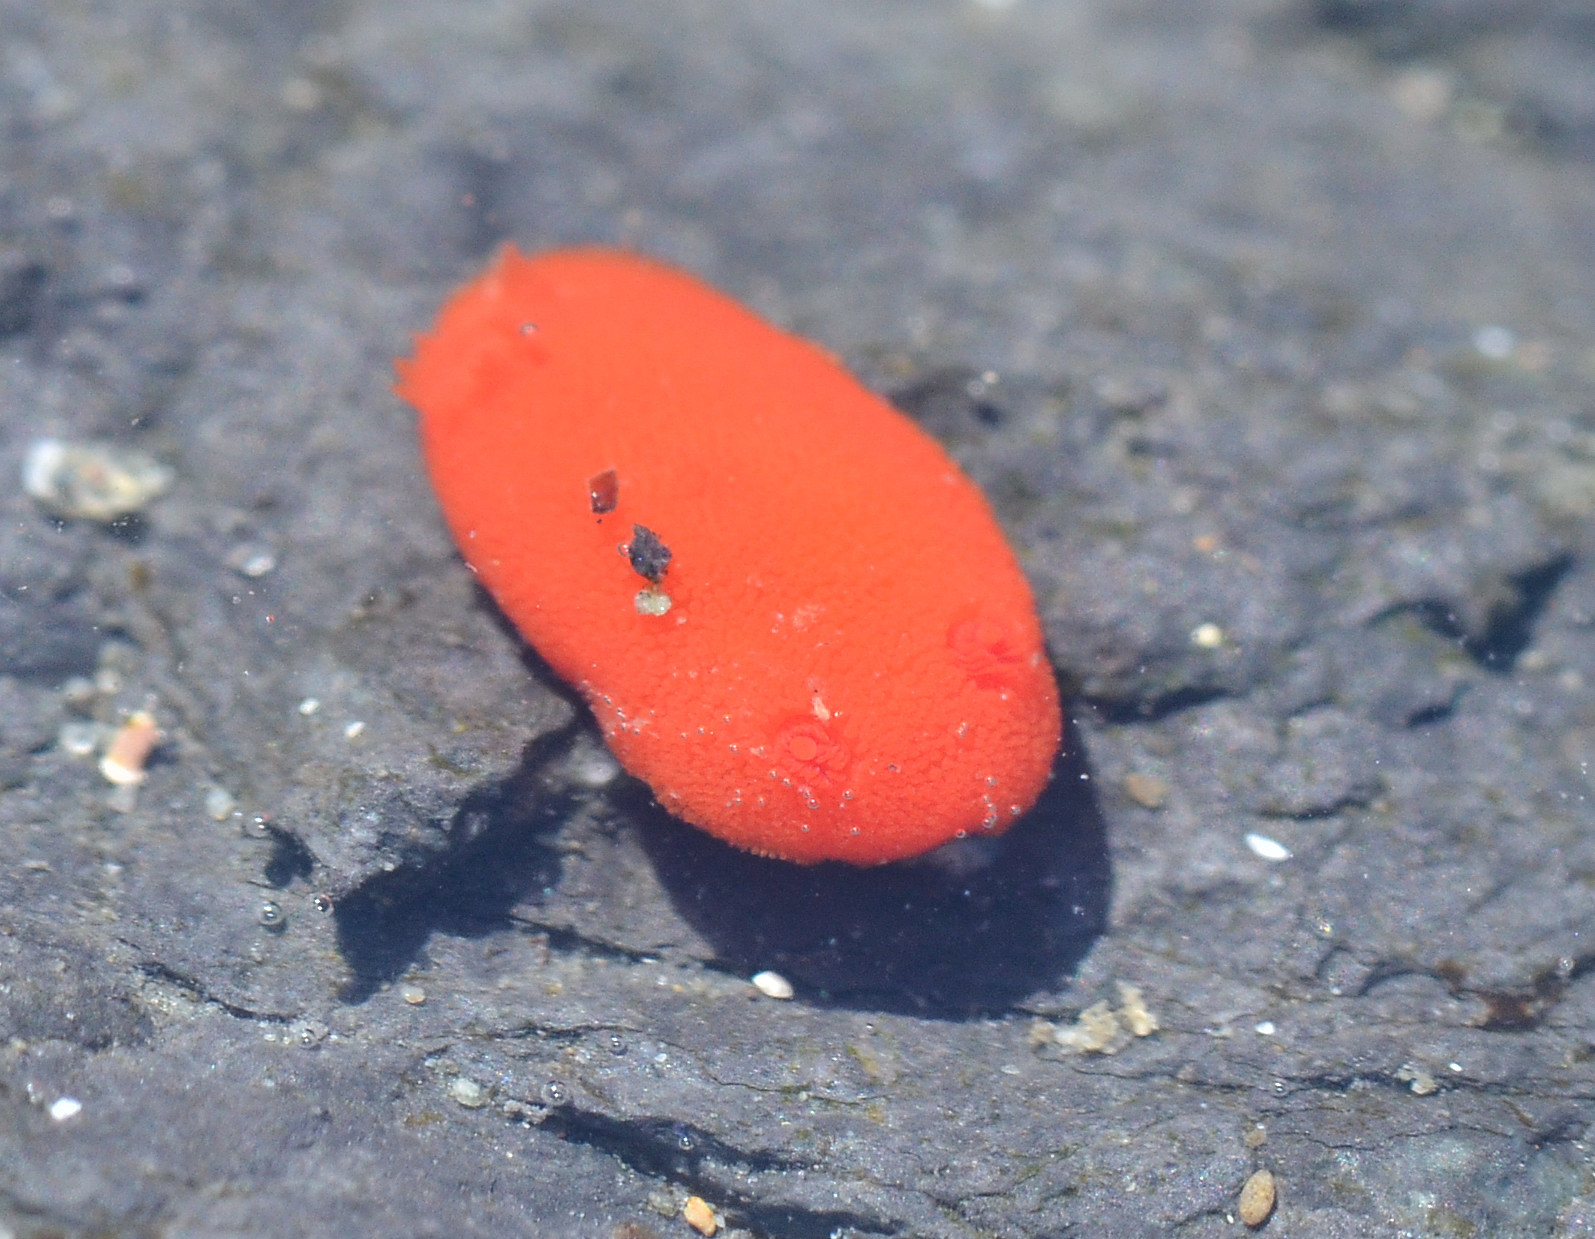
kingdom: Animalia
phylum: Mollusca
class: Gastropoda
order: Nudibranchia
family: Discodorididae
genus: Rostanga
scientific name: Rostanga pulchra
